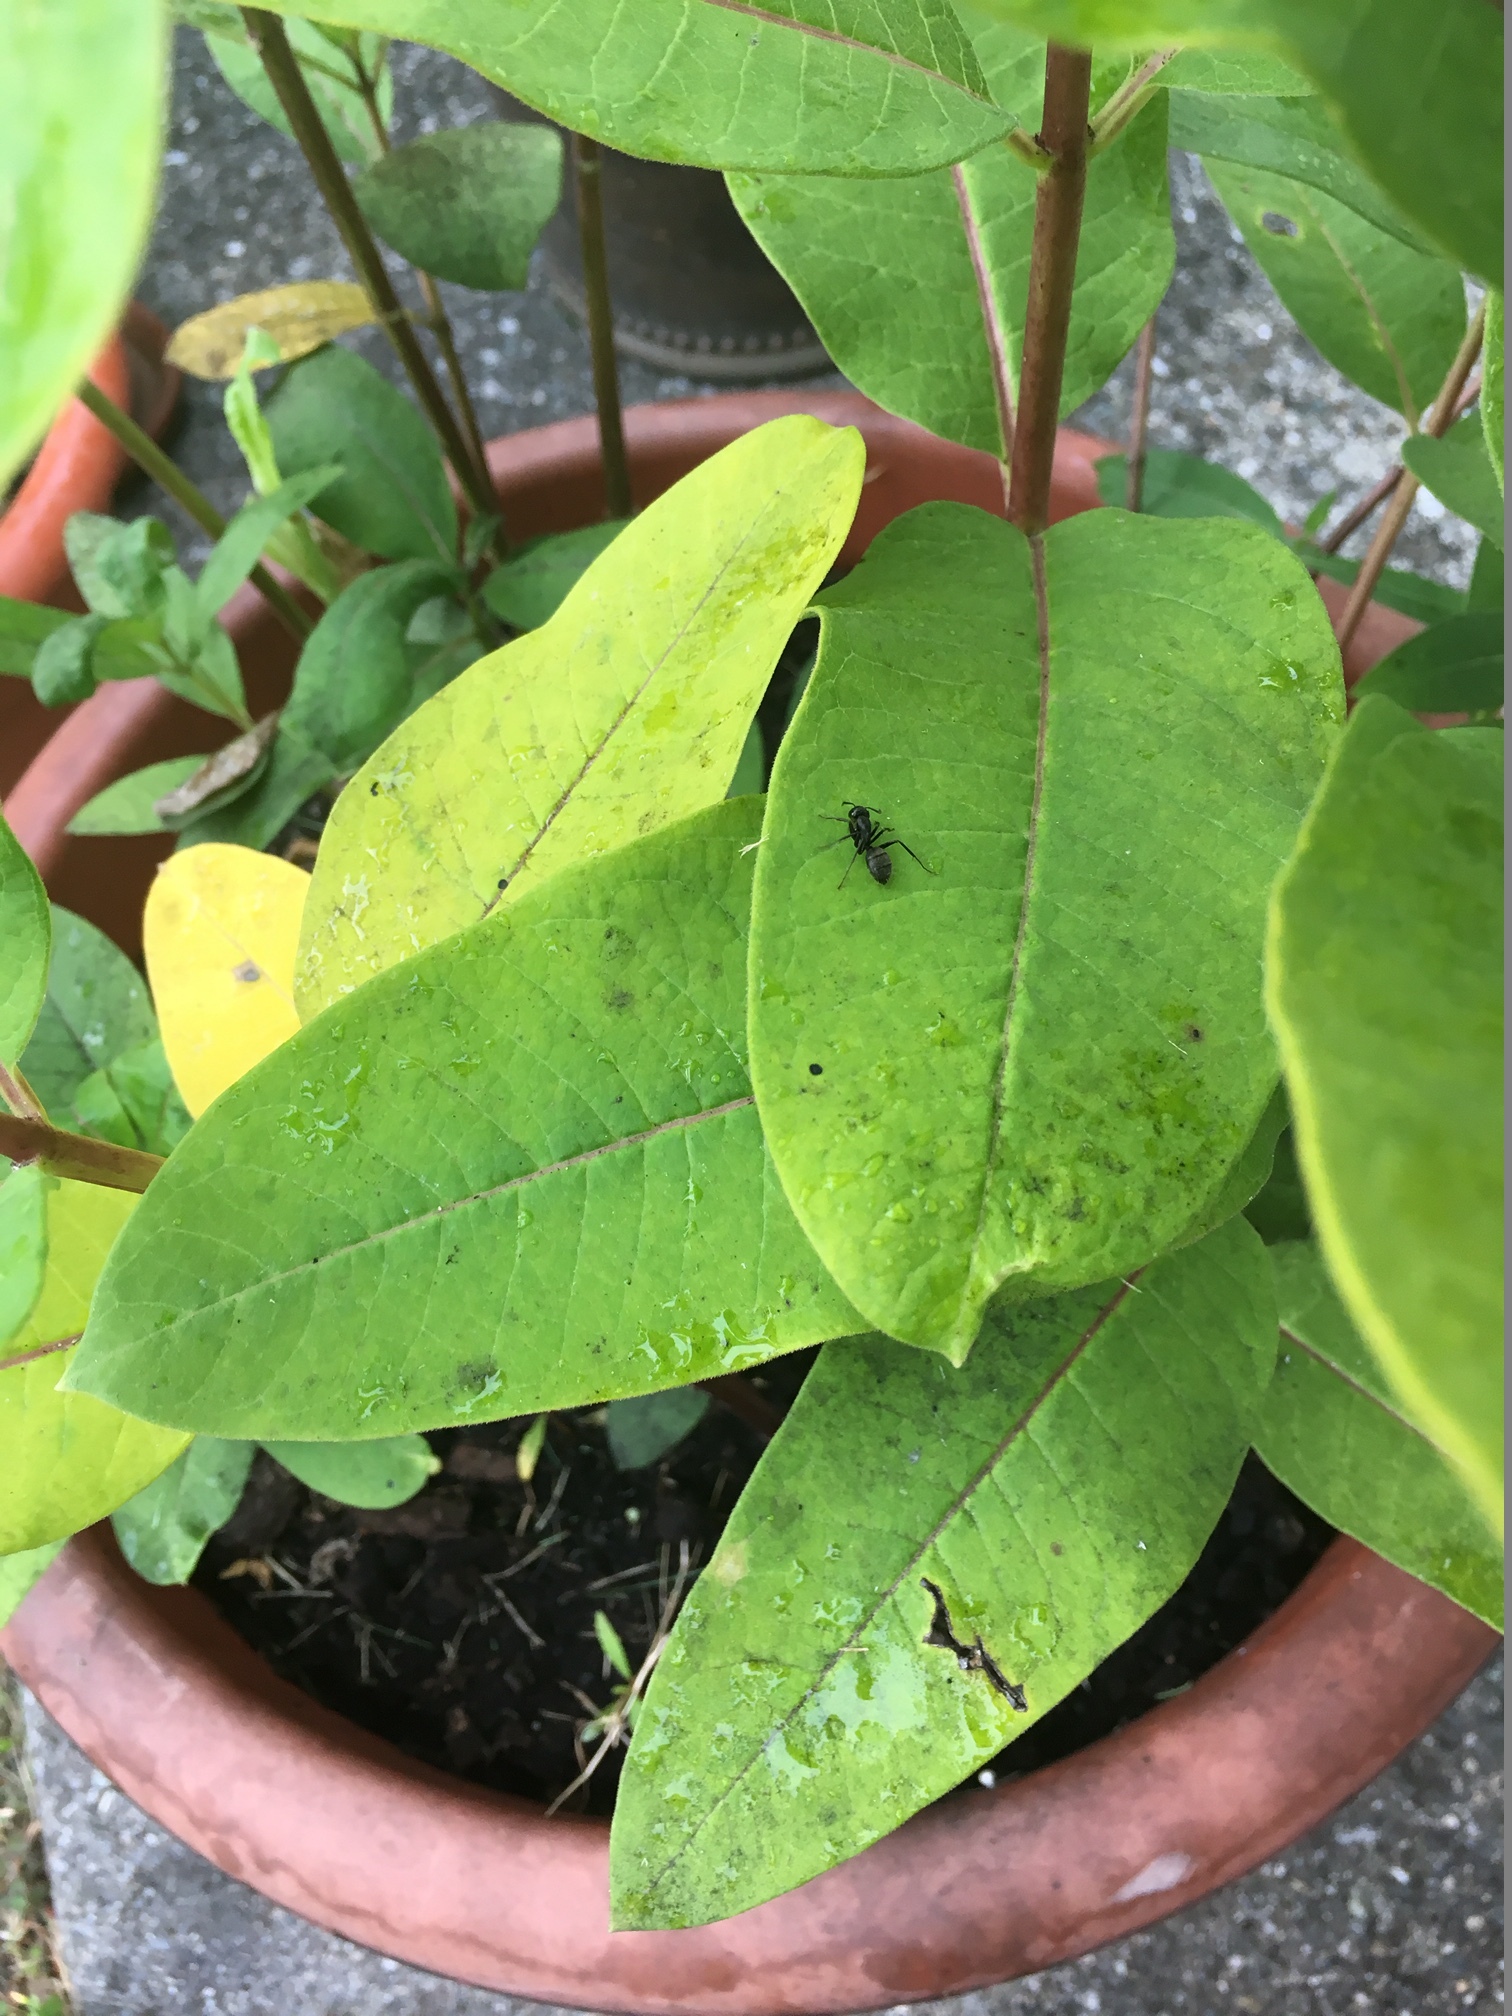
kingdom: Plantae
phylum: Tracheophyta
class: Magnoliopsida
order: Gentianales
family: Apocynaceae
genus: Asclepias
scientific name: Asclepias syriaca
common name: Common milkweed
